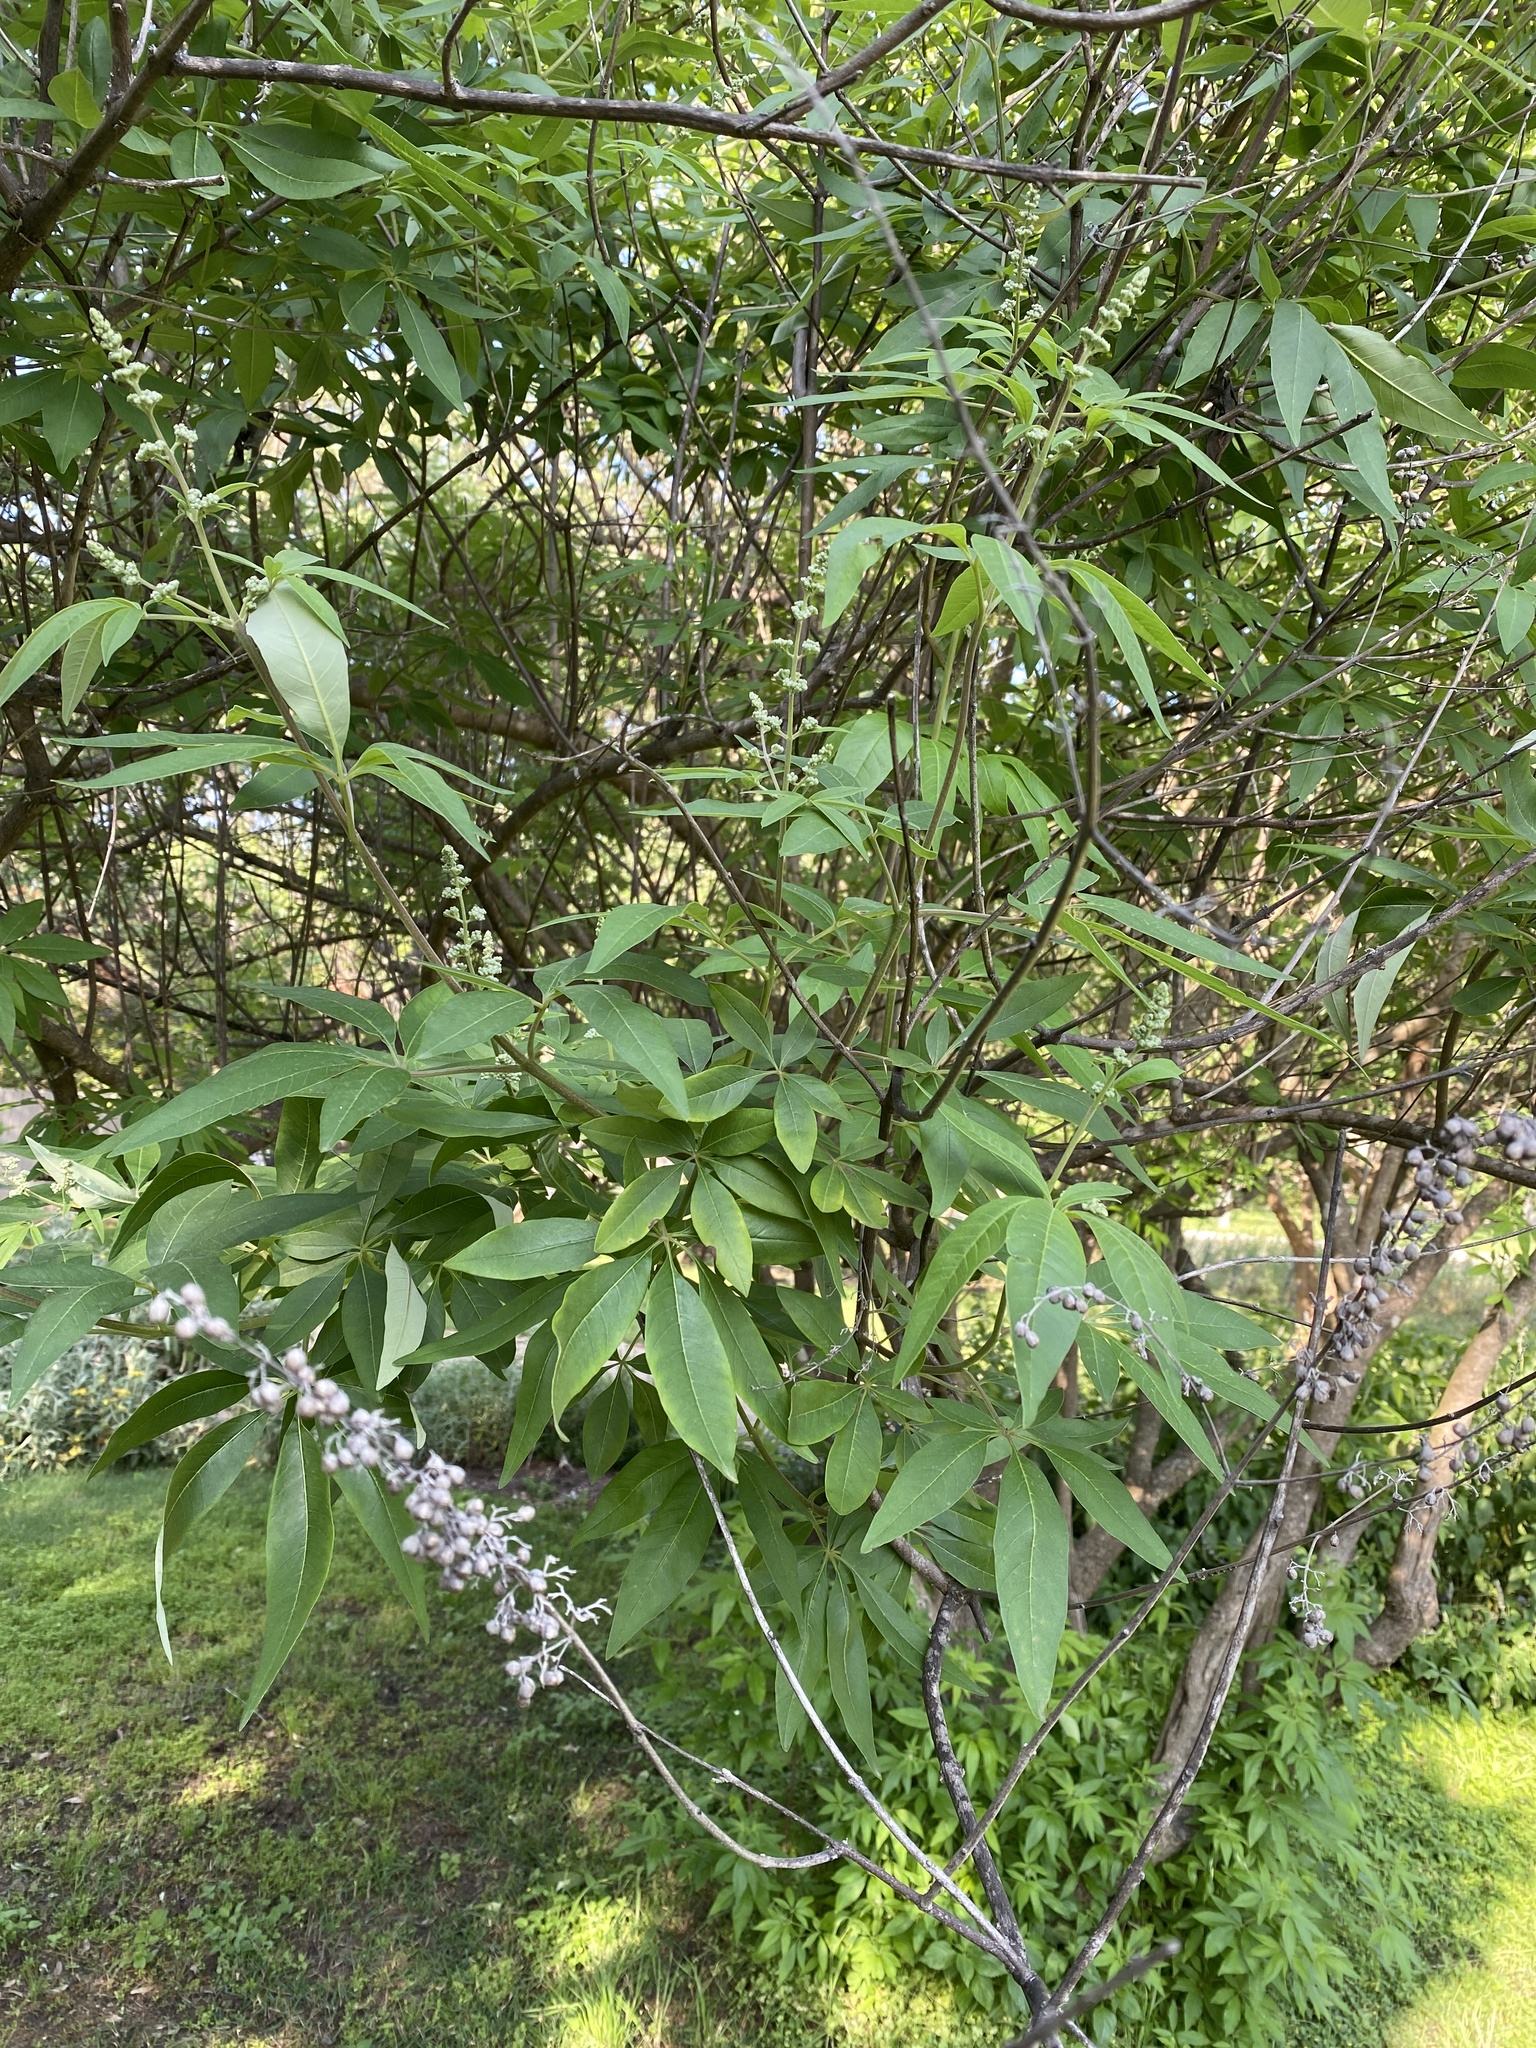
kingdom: Plantae
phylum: Tracheophyta
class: Magnoliopsida
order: Lamiales
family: Lamiaceae
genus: Vitex
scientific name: Vitex agnus-castus
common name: Chasteberry
